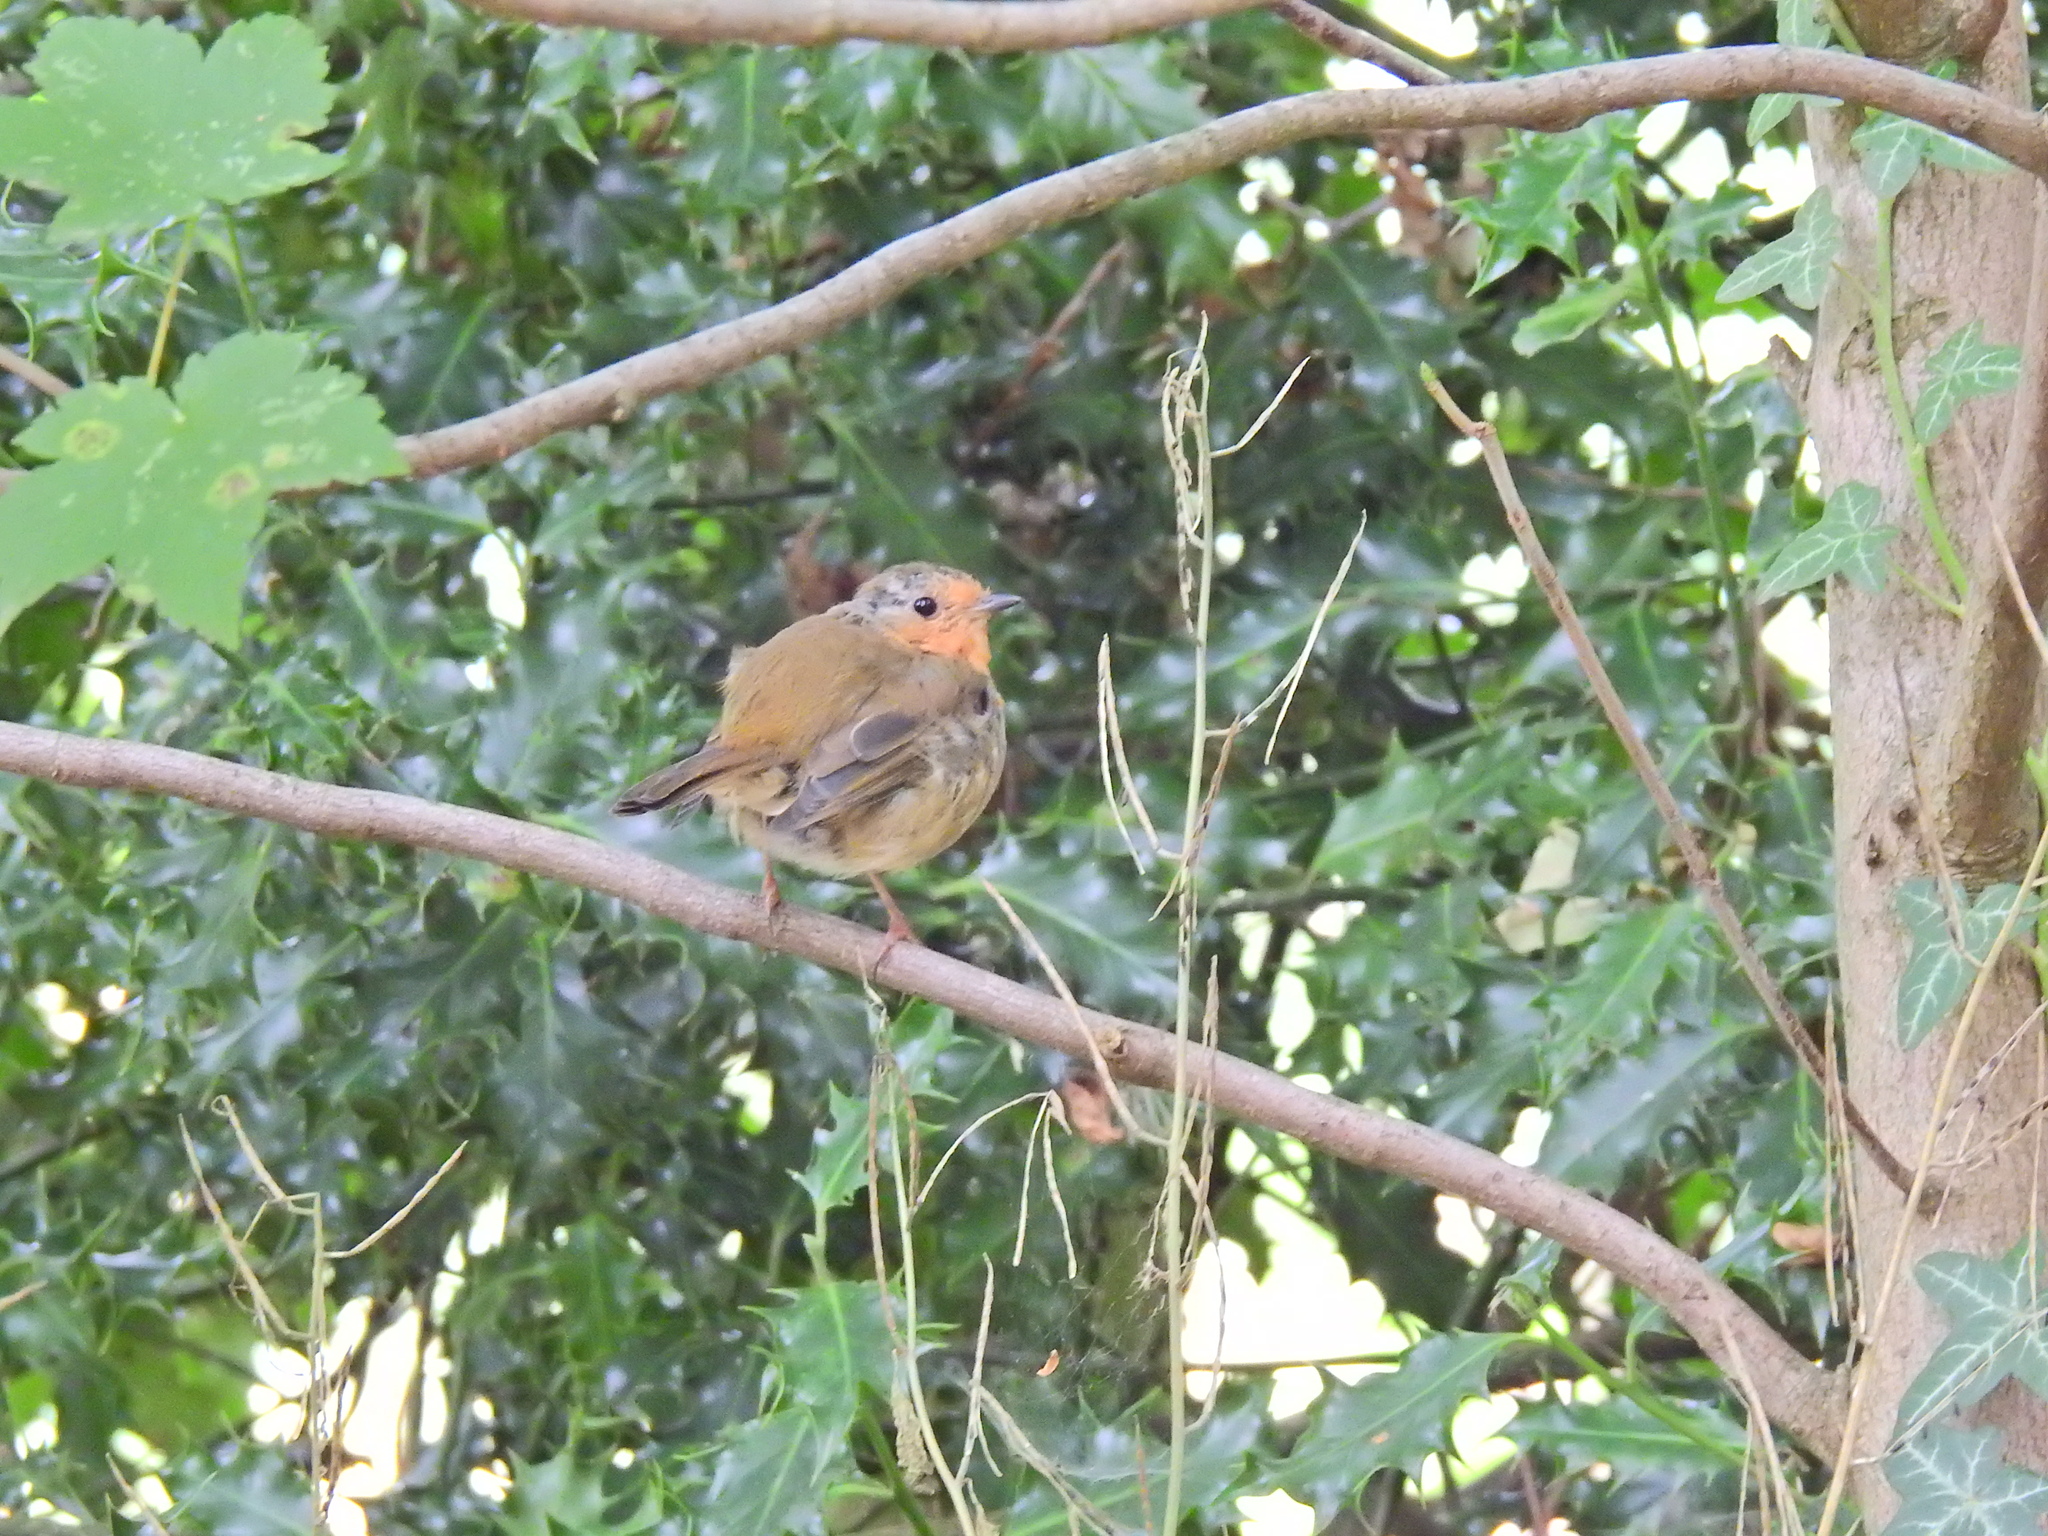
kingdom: Animalia
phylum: Chordata
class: Aves
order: Passeriformes
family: Muscicapidae
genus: Erithacus
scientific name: Erithacus rubecula
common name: European robin
